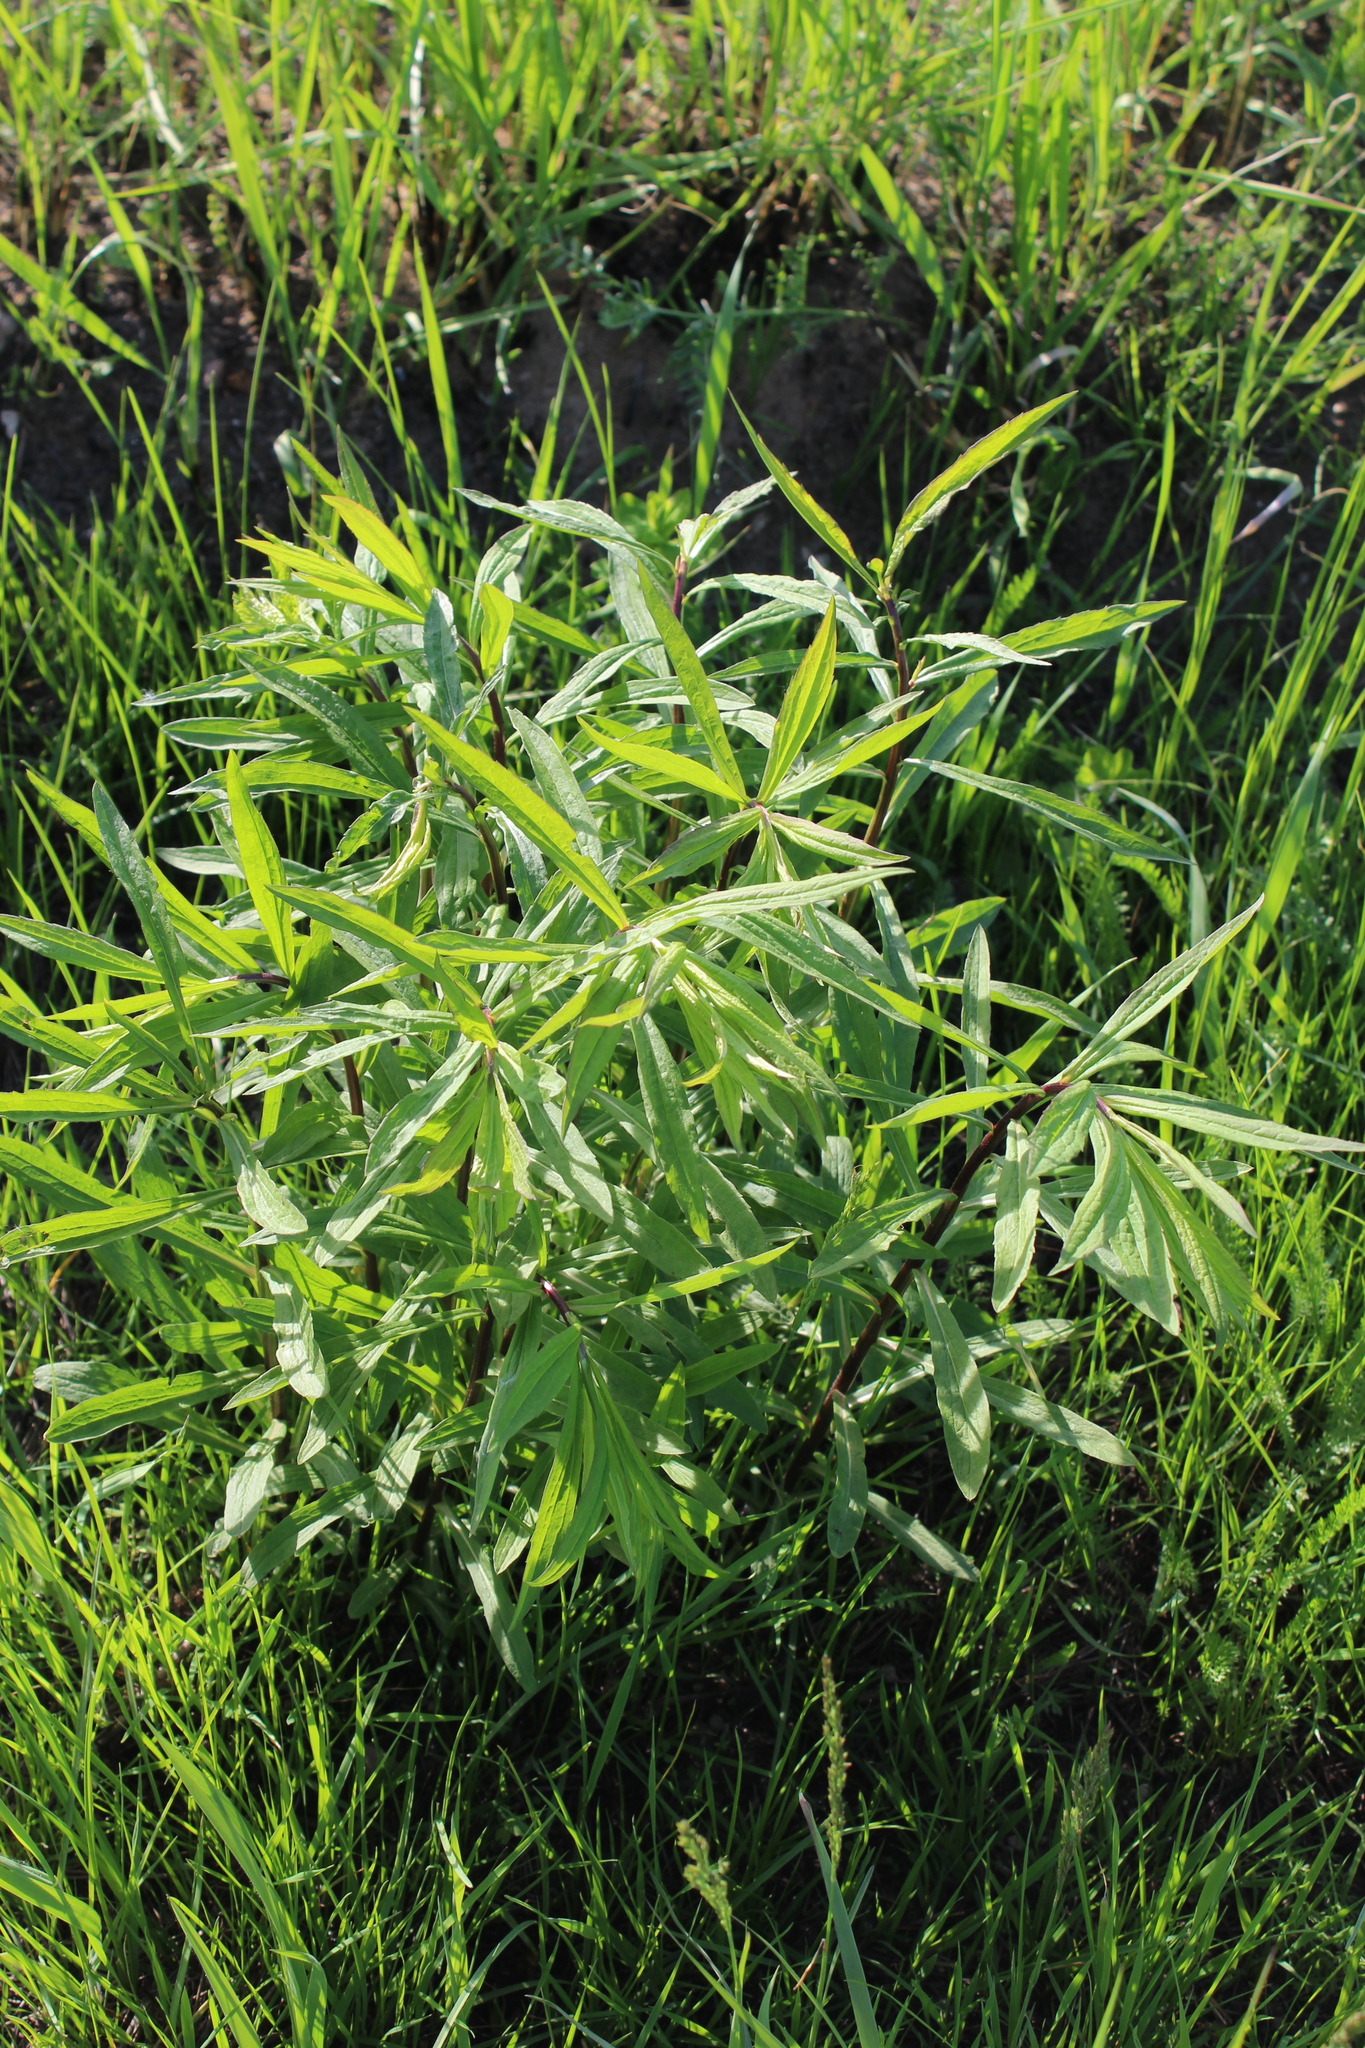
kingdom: Plantae
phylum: Tracheophyta
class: Magnoliopsida
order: Asterales
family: Asteraceae
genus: Solidago
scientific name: Solidago canadensis
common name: Canada goldenrod
